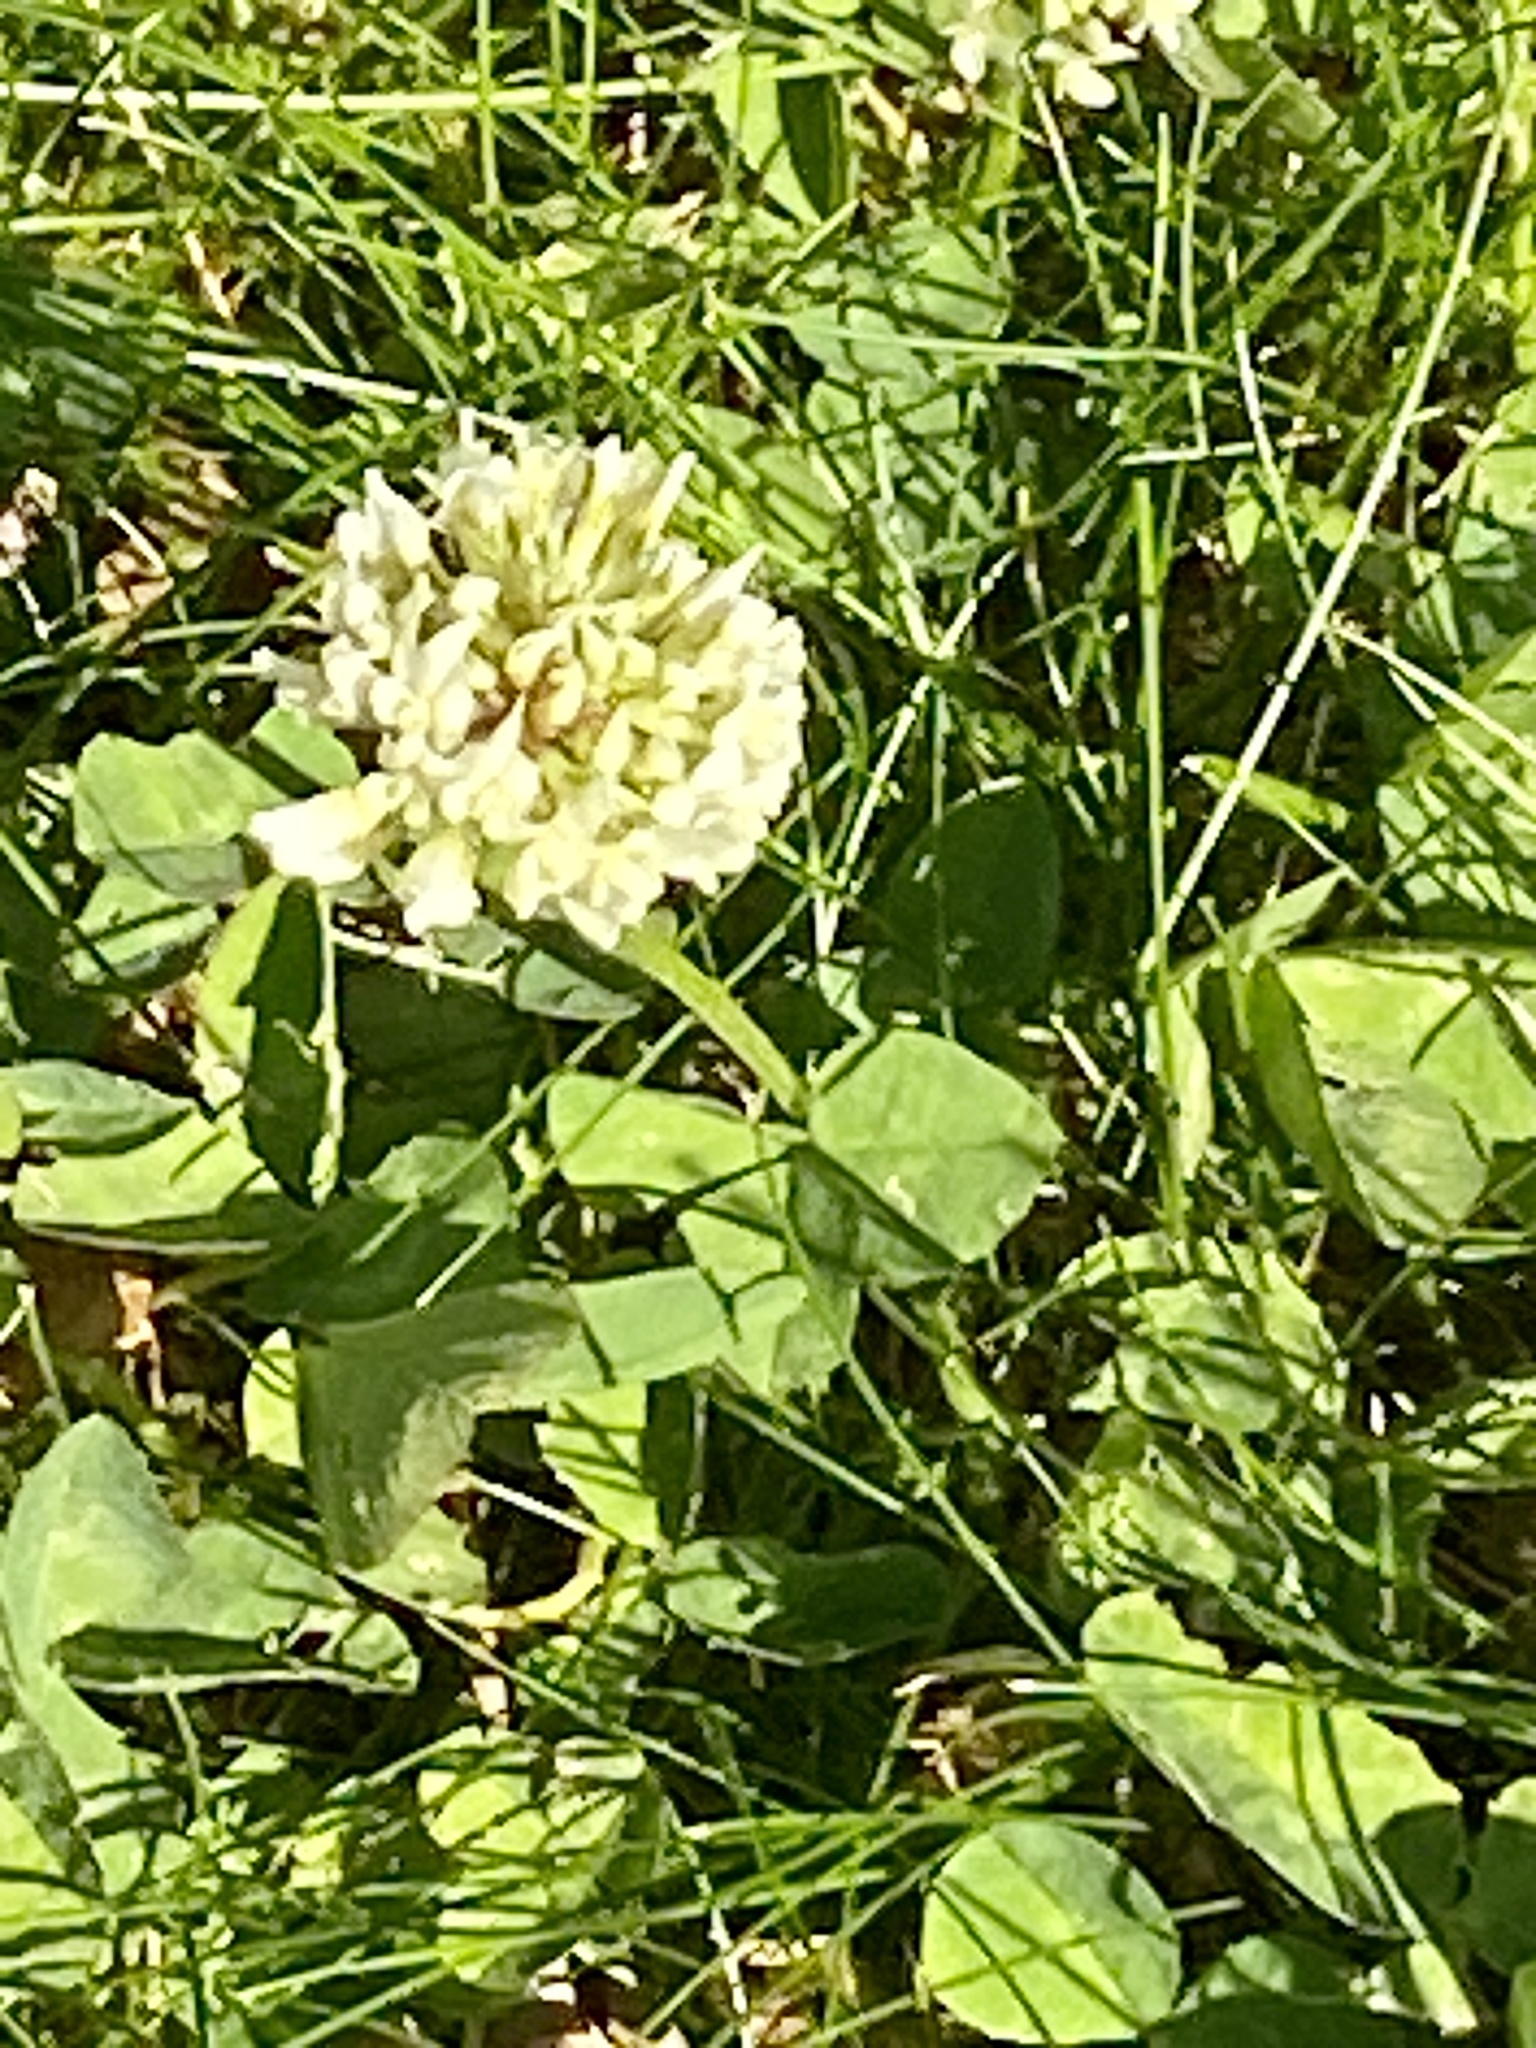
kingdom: Plantae
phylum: Tracheophyta
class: Magnoliopsida
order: Fabales
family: Fabaceae
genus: Trifolium
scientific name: Trifolium repens
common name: White clover
